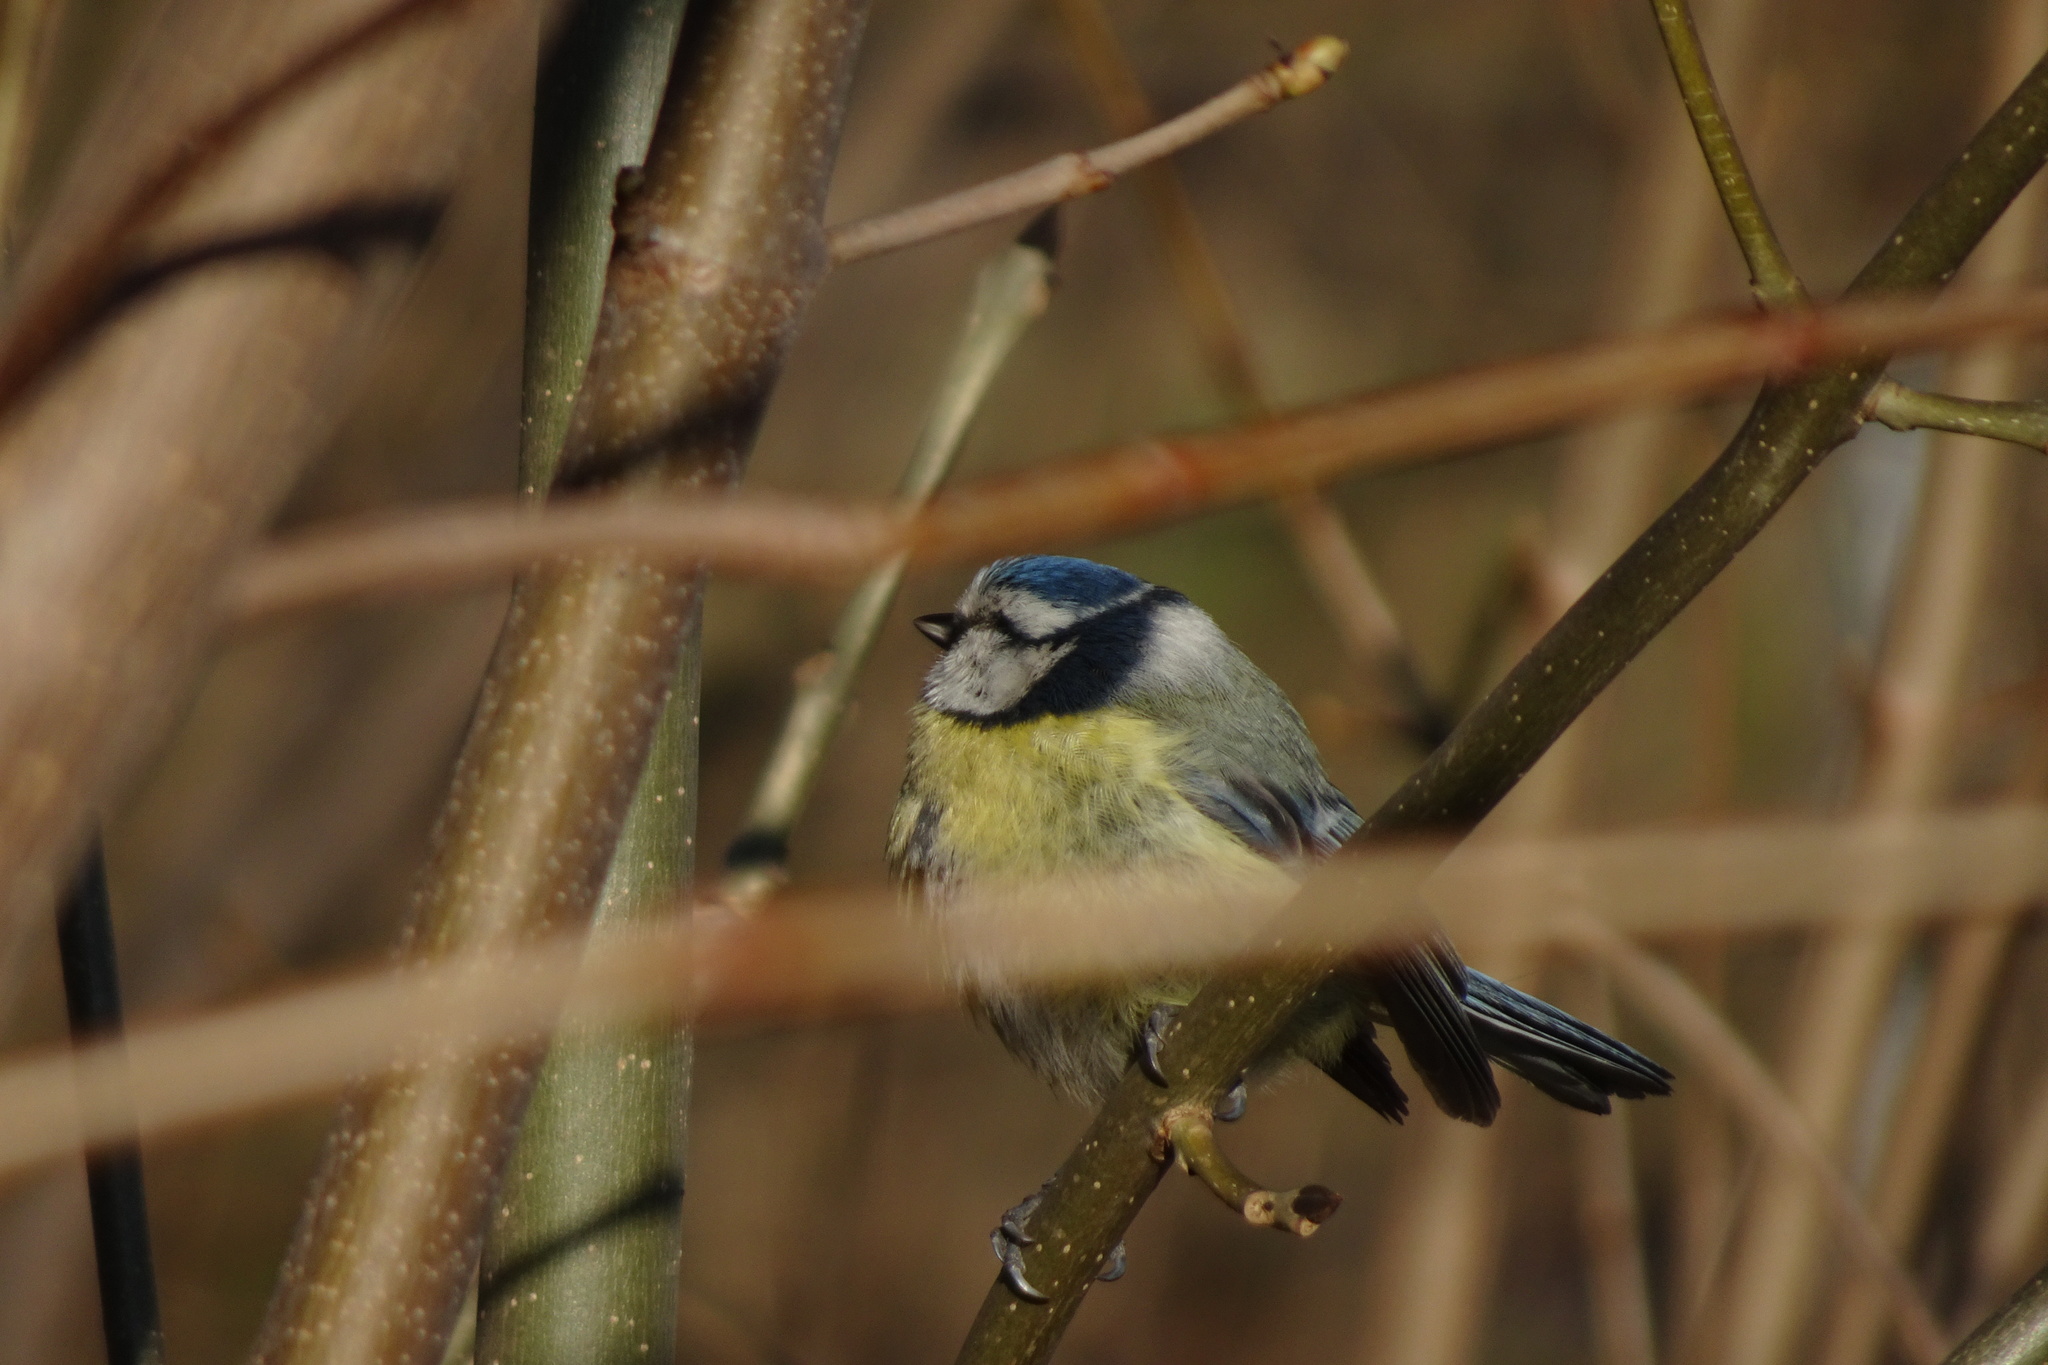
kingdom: Animalia
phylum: Chordata
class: Aves
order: Passeriformes
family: Paridae
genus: Cyanistes
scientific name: Cyanistes caeruleus
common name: Eurasian blue tit
